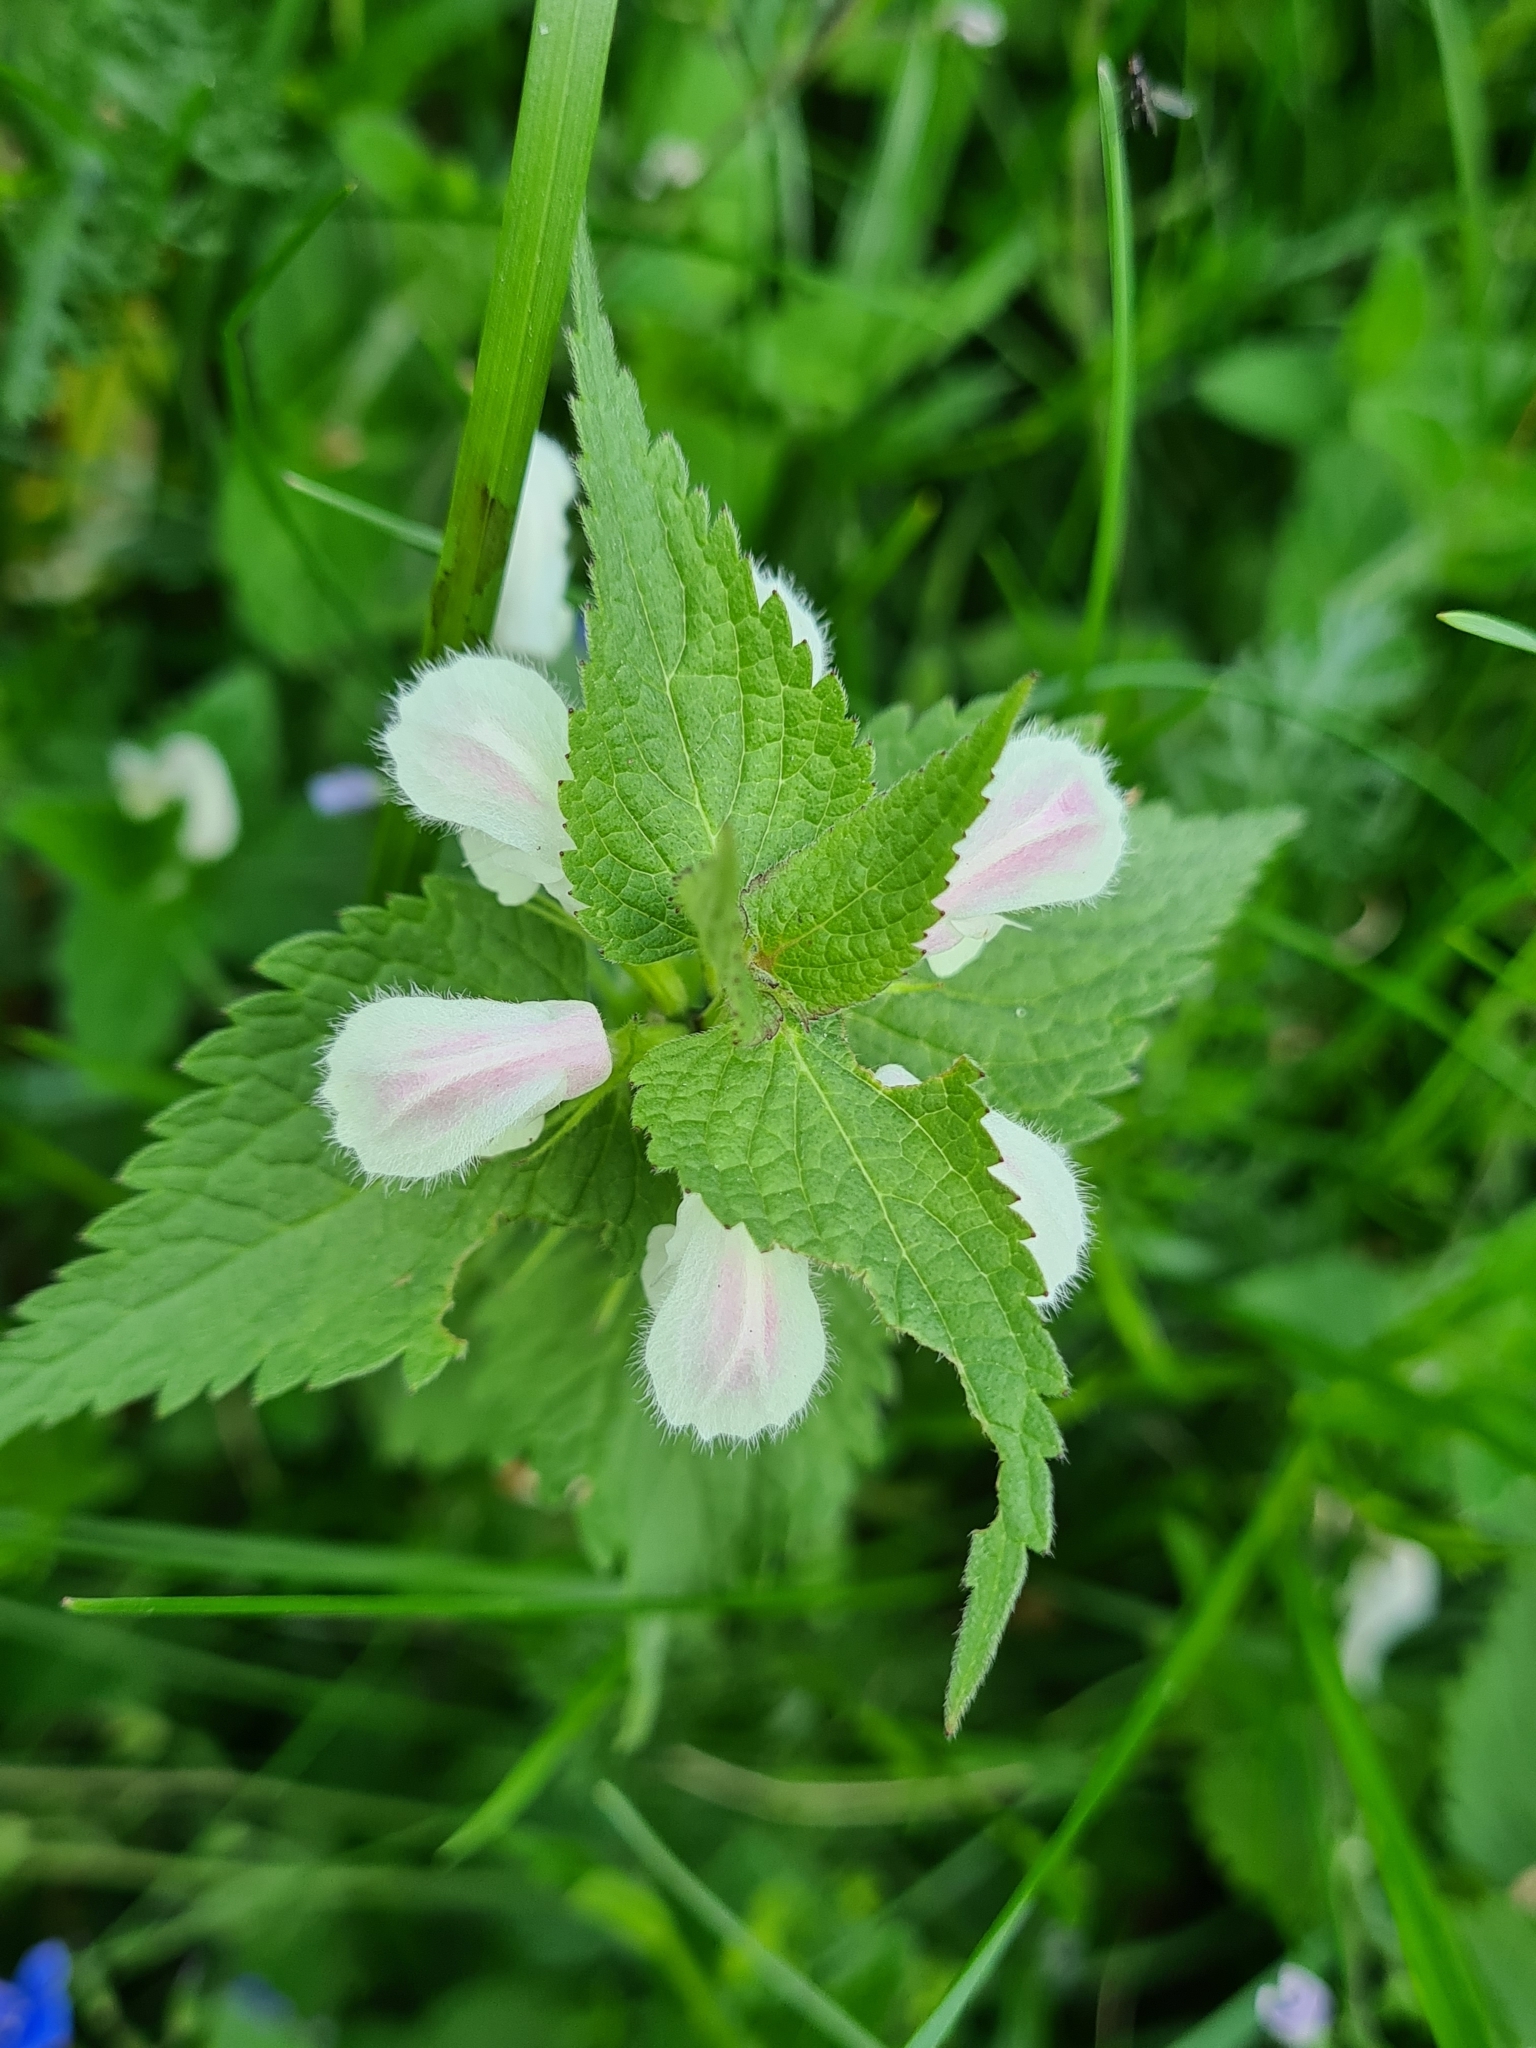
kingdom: Plantae
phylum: Tracheophyta
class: Magnoliopsida
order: Lamiales
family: Lamiaceae
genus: Lamium
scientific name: Lamium album
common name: White dead-nettle
